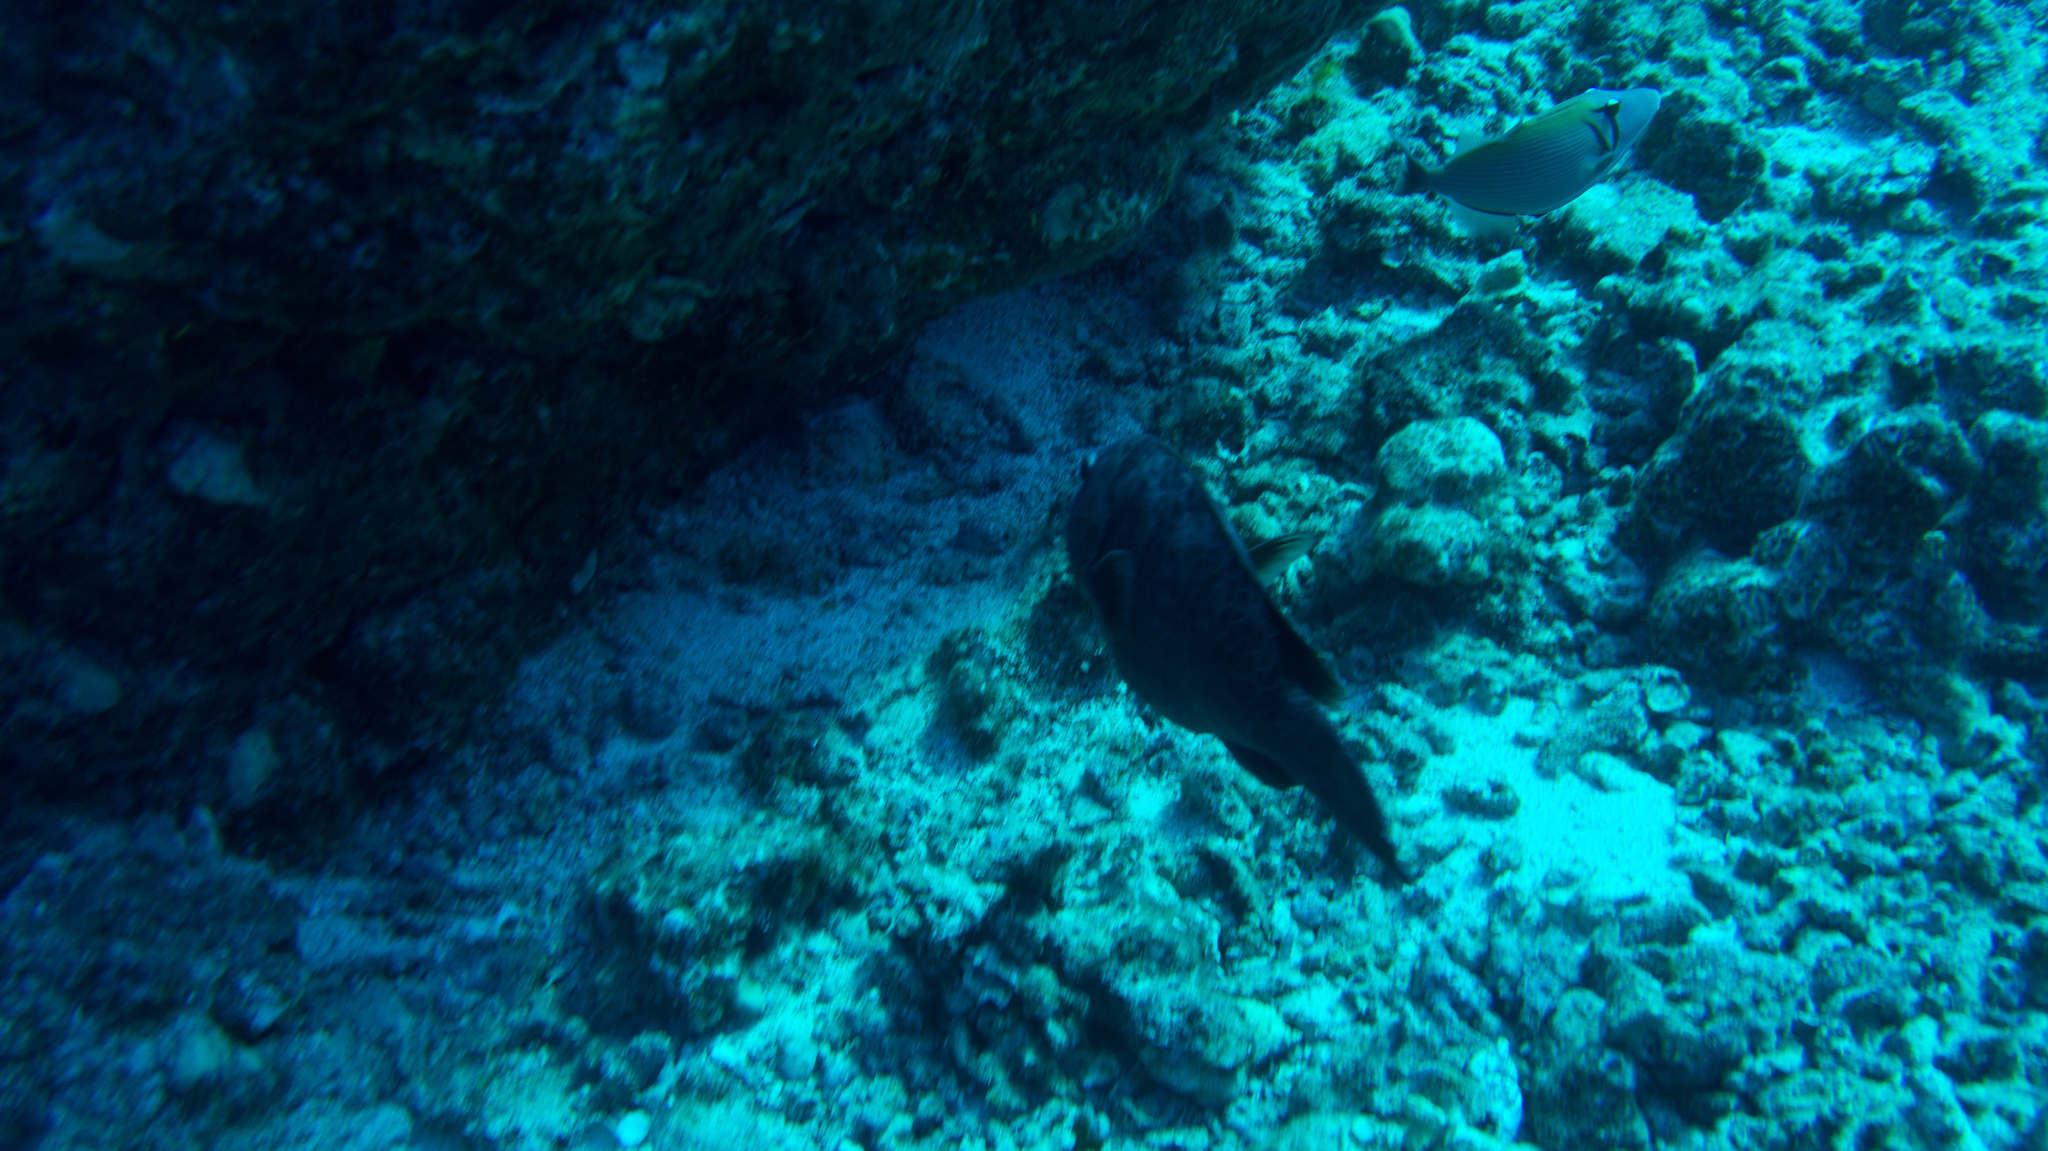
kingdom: Animalia
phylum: Chordata
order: Perciformes
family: Scaridae
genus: Calotomus
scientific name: Calotomus carolinus
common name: Bucktooth
